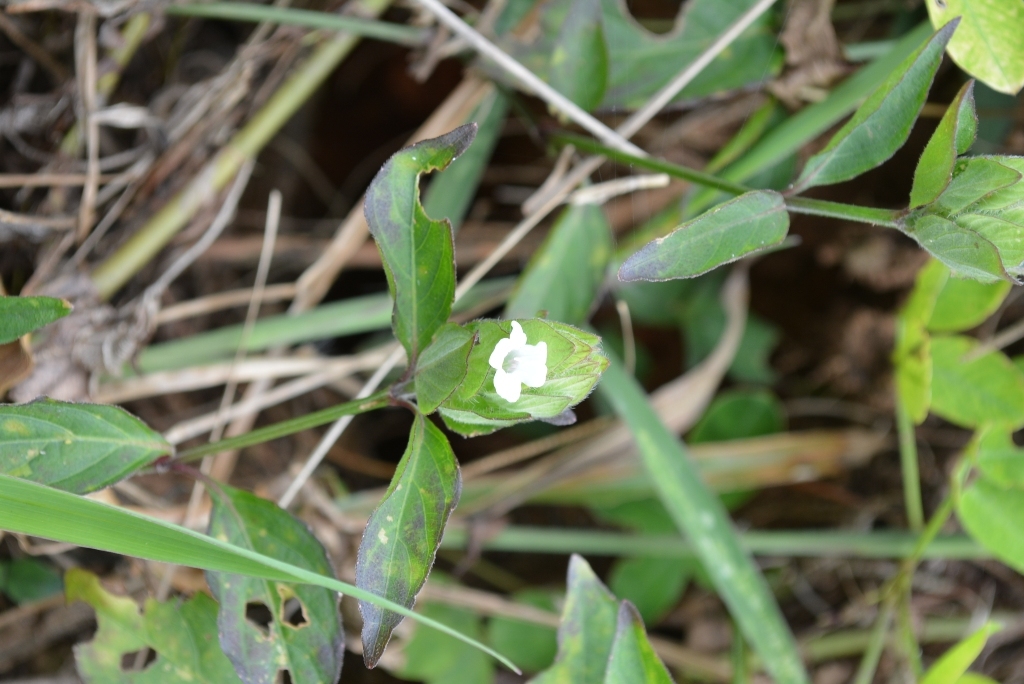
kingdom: Plantae
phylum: Tracheophyta
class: Magnoliopsida
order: Lamiales
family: Acanthaceae
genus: Ruellia
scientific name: Ruellia blechum
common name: Browne's blechum
